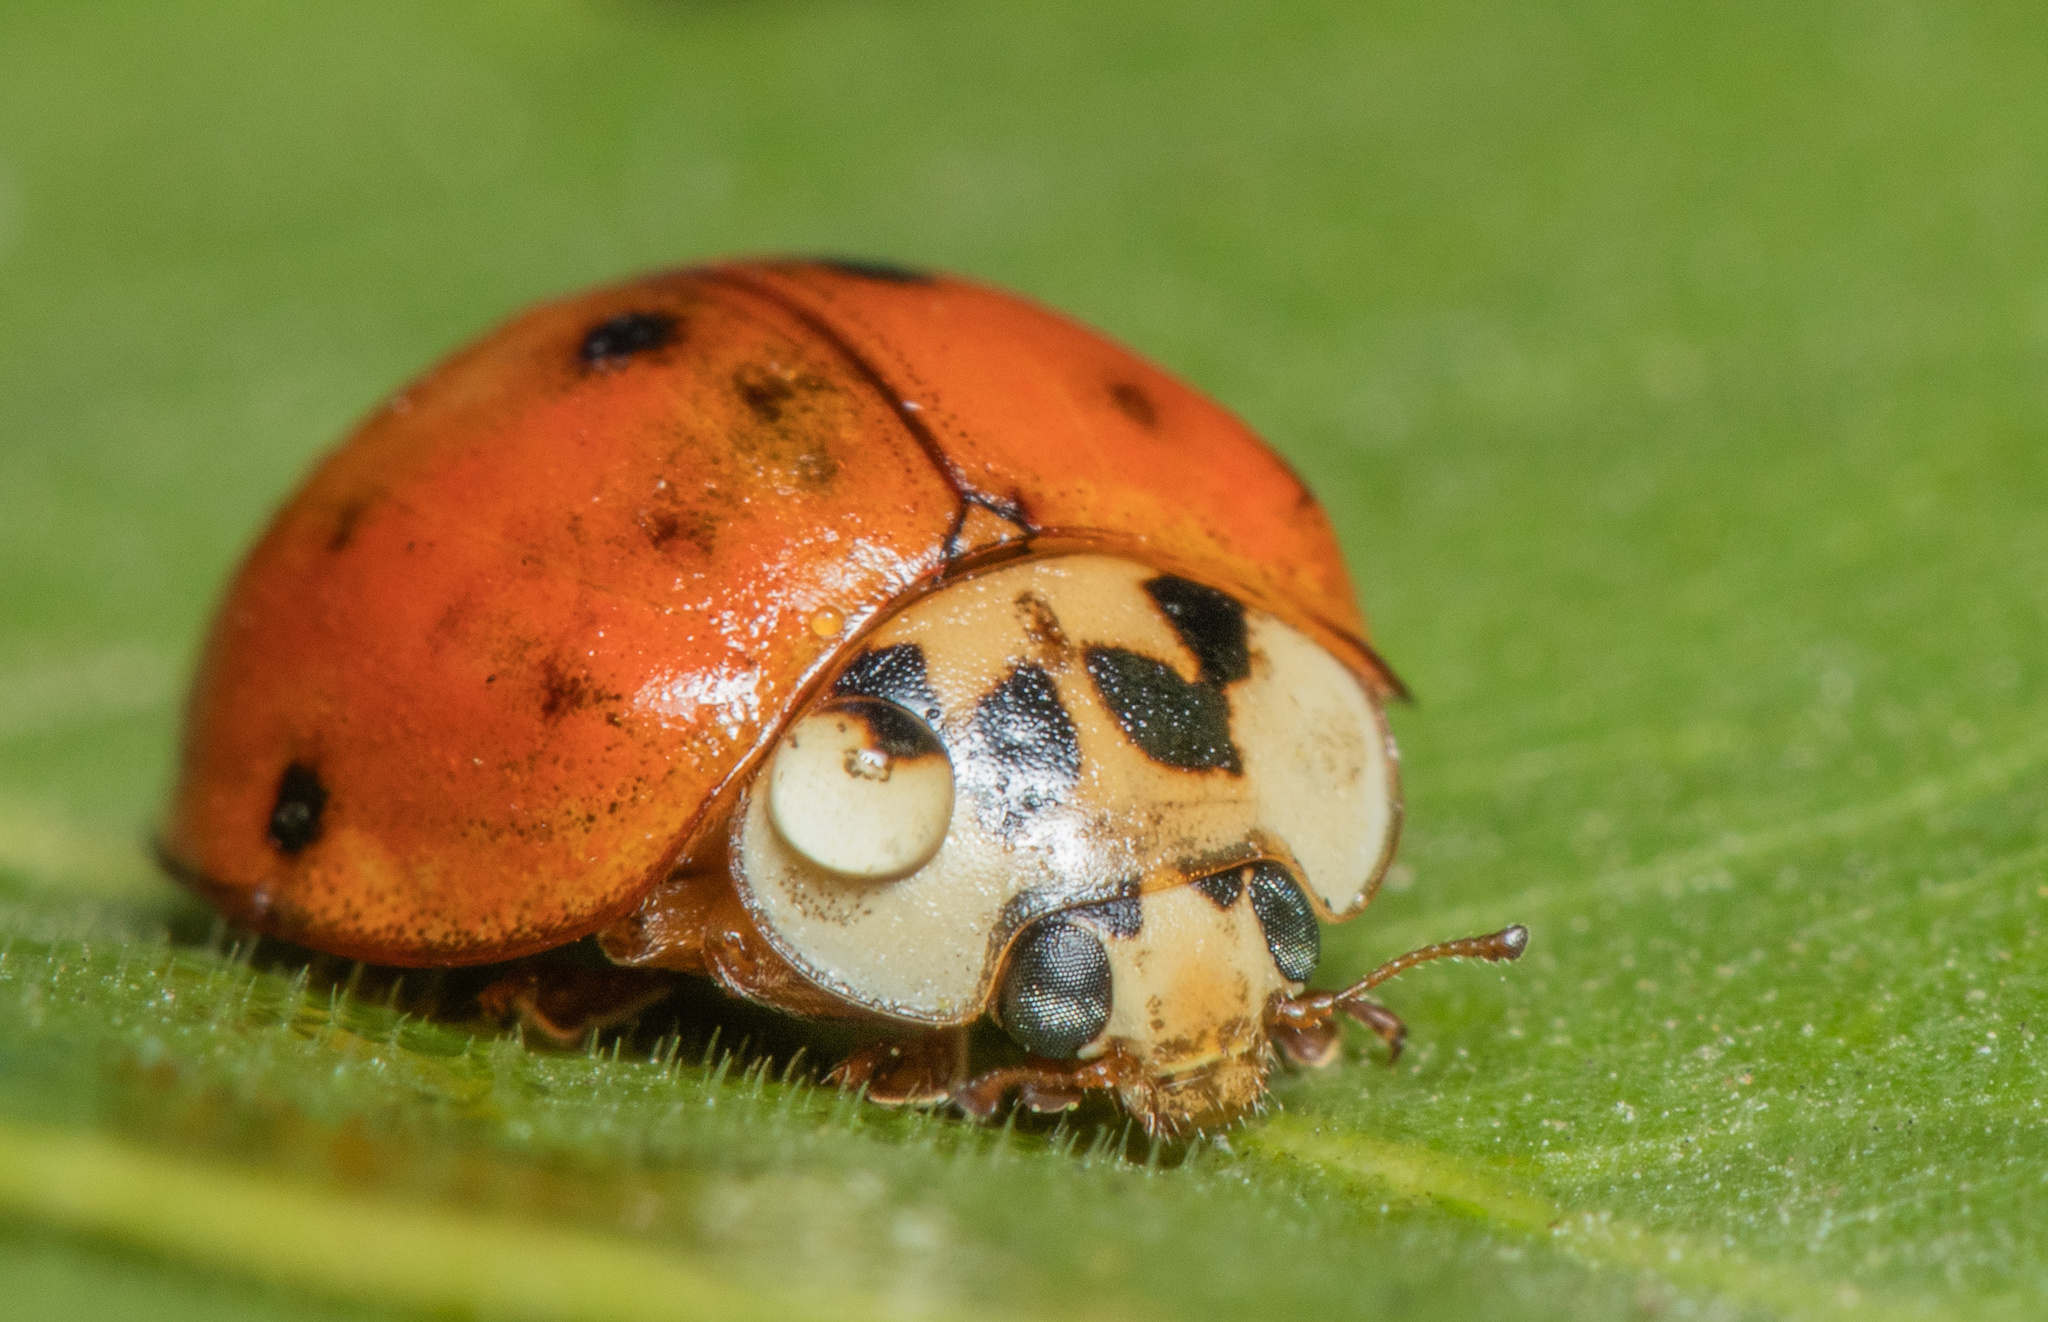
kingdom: Animalia
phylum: Arthropoda
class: Insecta
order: Coleoptera
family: Coccinellidae
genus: Harmonia
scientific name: Harmonia axyridis
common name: Harlequin ladybird
